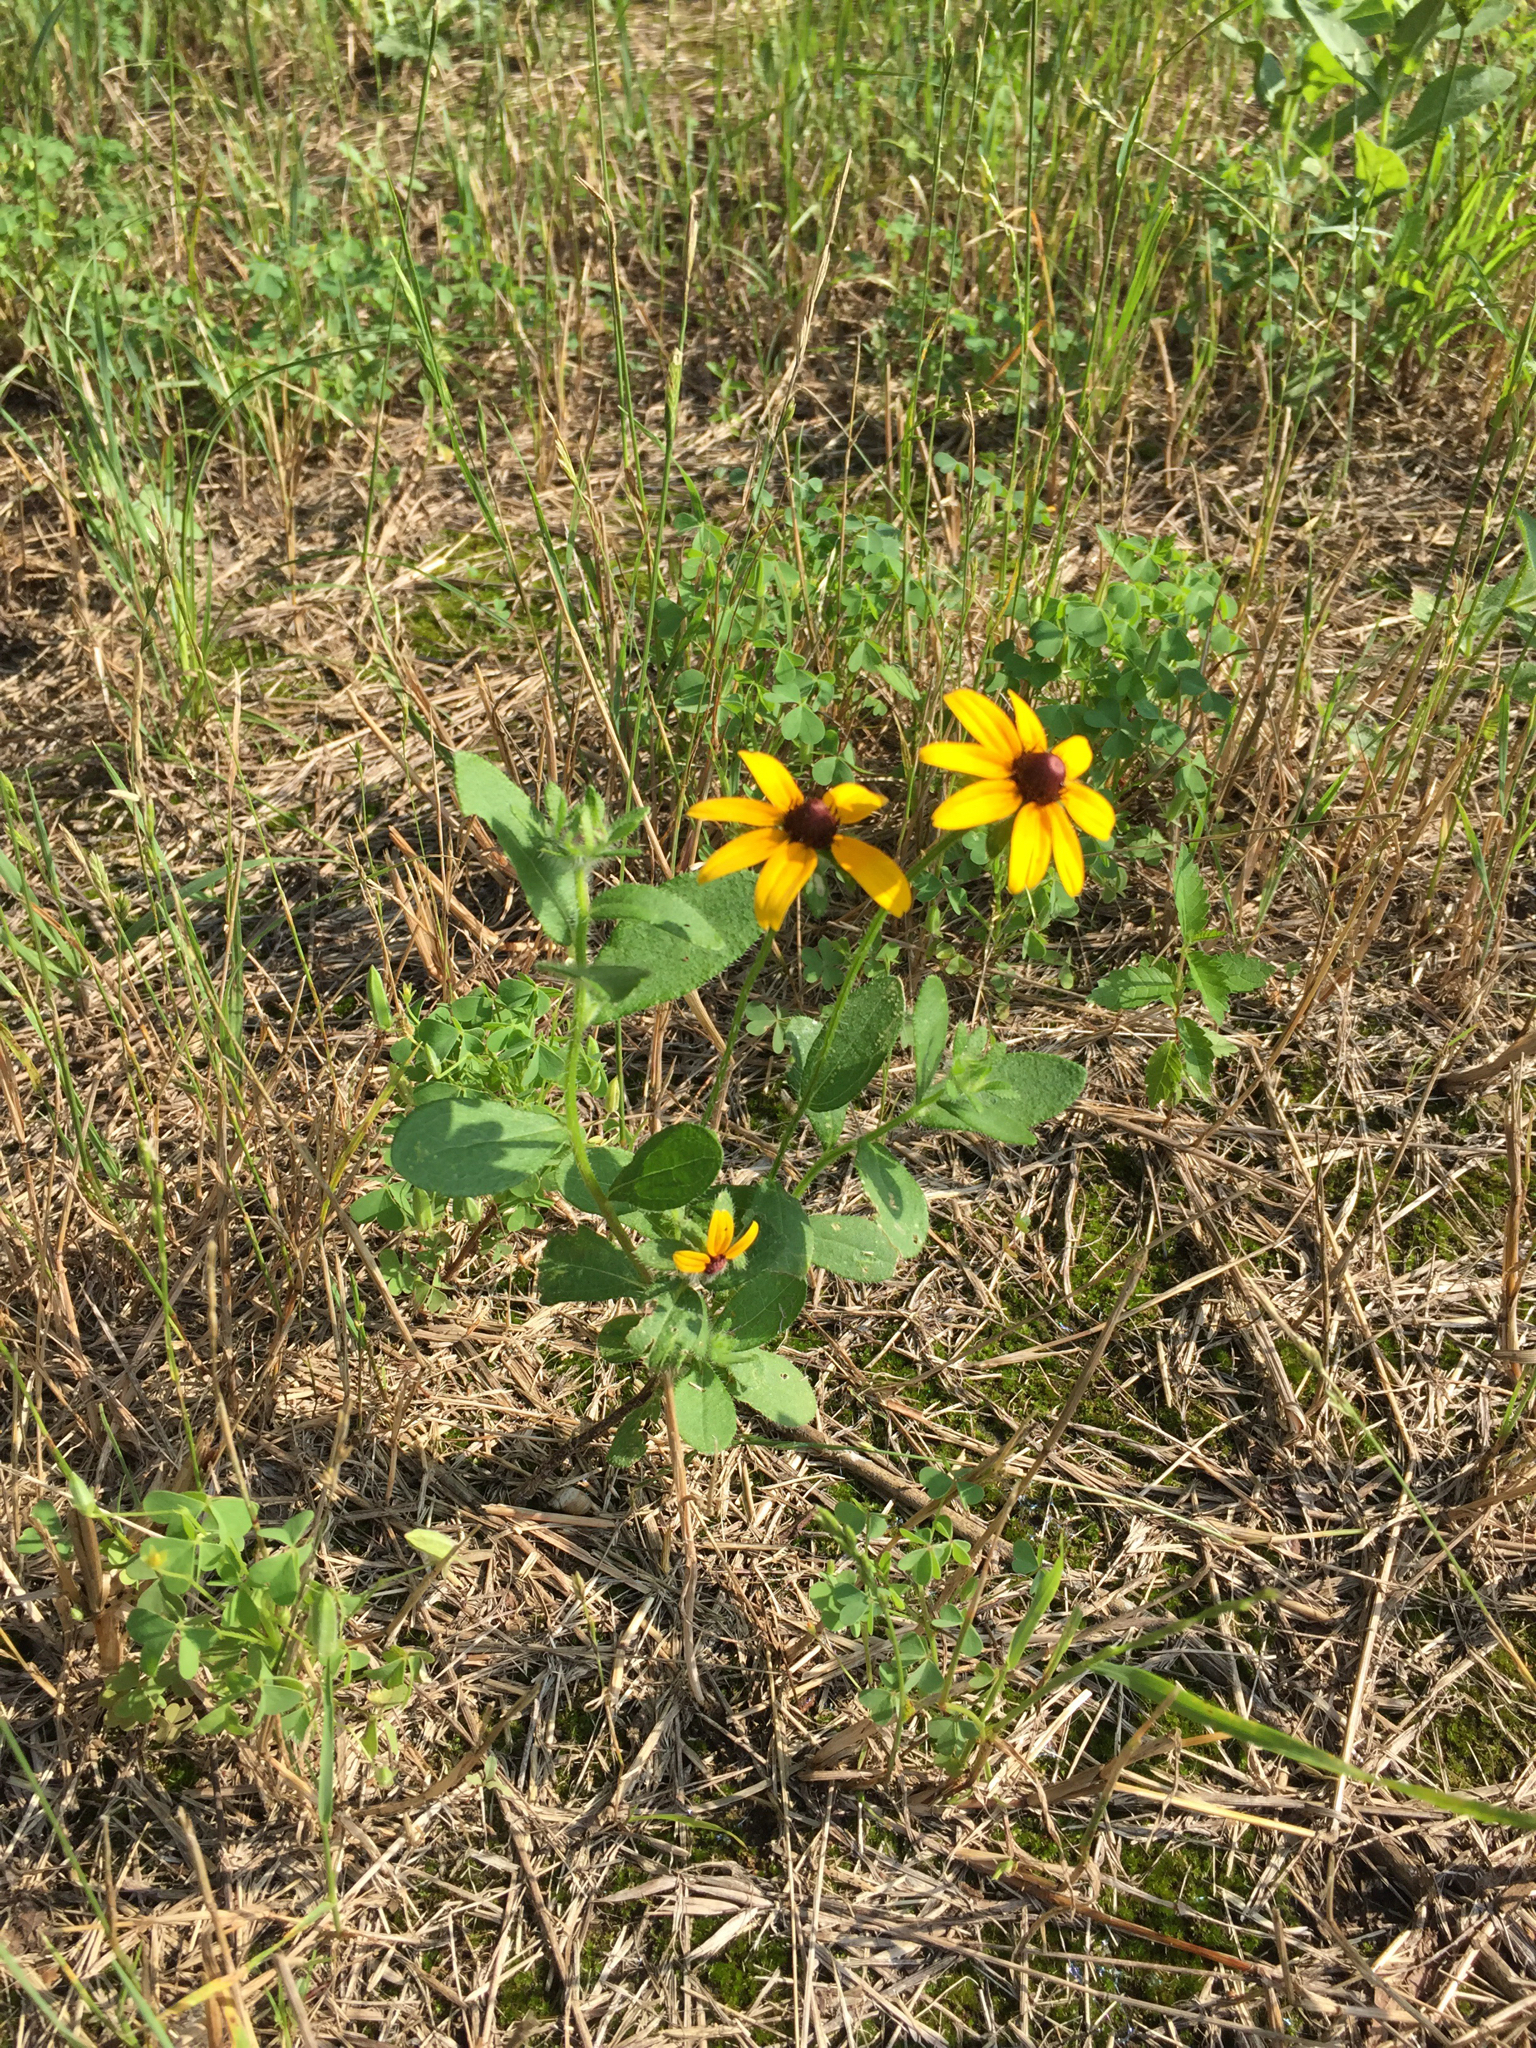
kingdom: Plantae
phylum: Tracheophyta
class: Magnoliopsida
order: Asterales
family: Asteraceae
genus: Rudbeckia
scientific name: Rudbeckia hirta
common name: Black-eyed-susan
